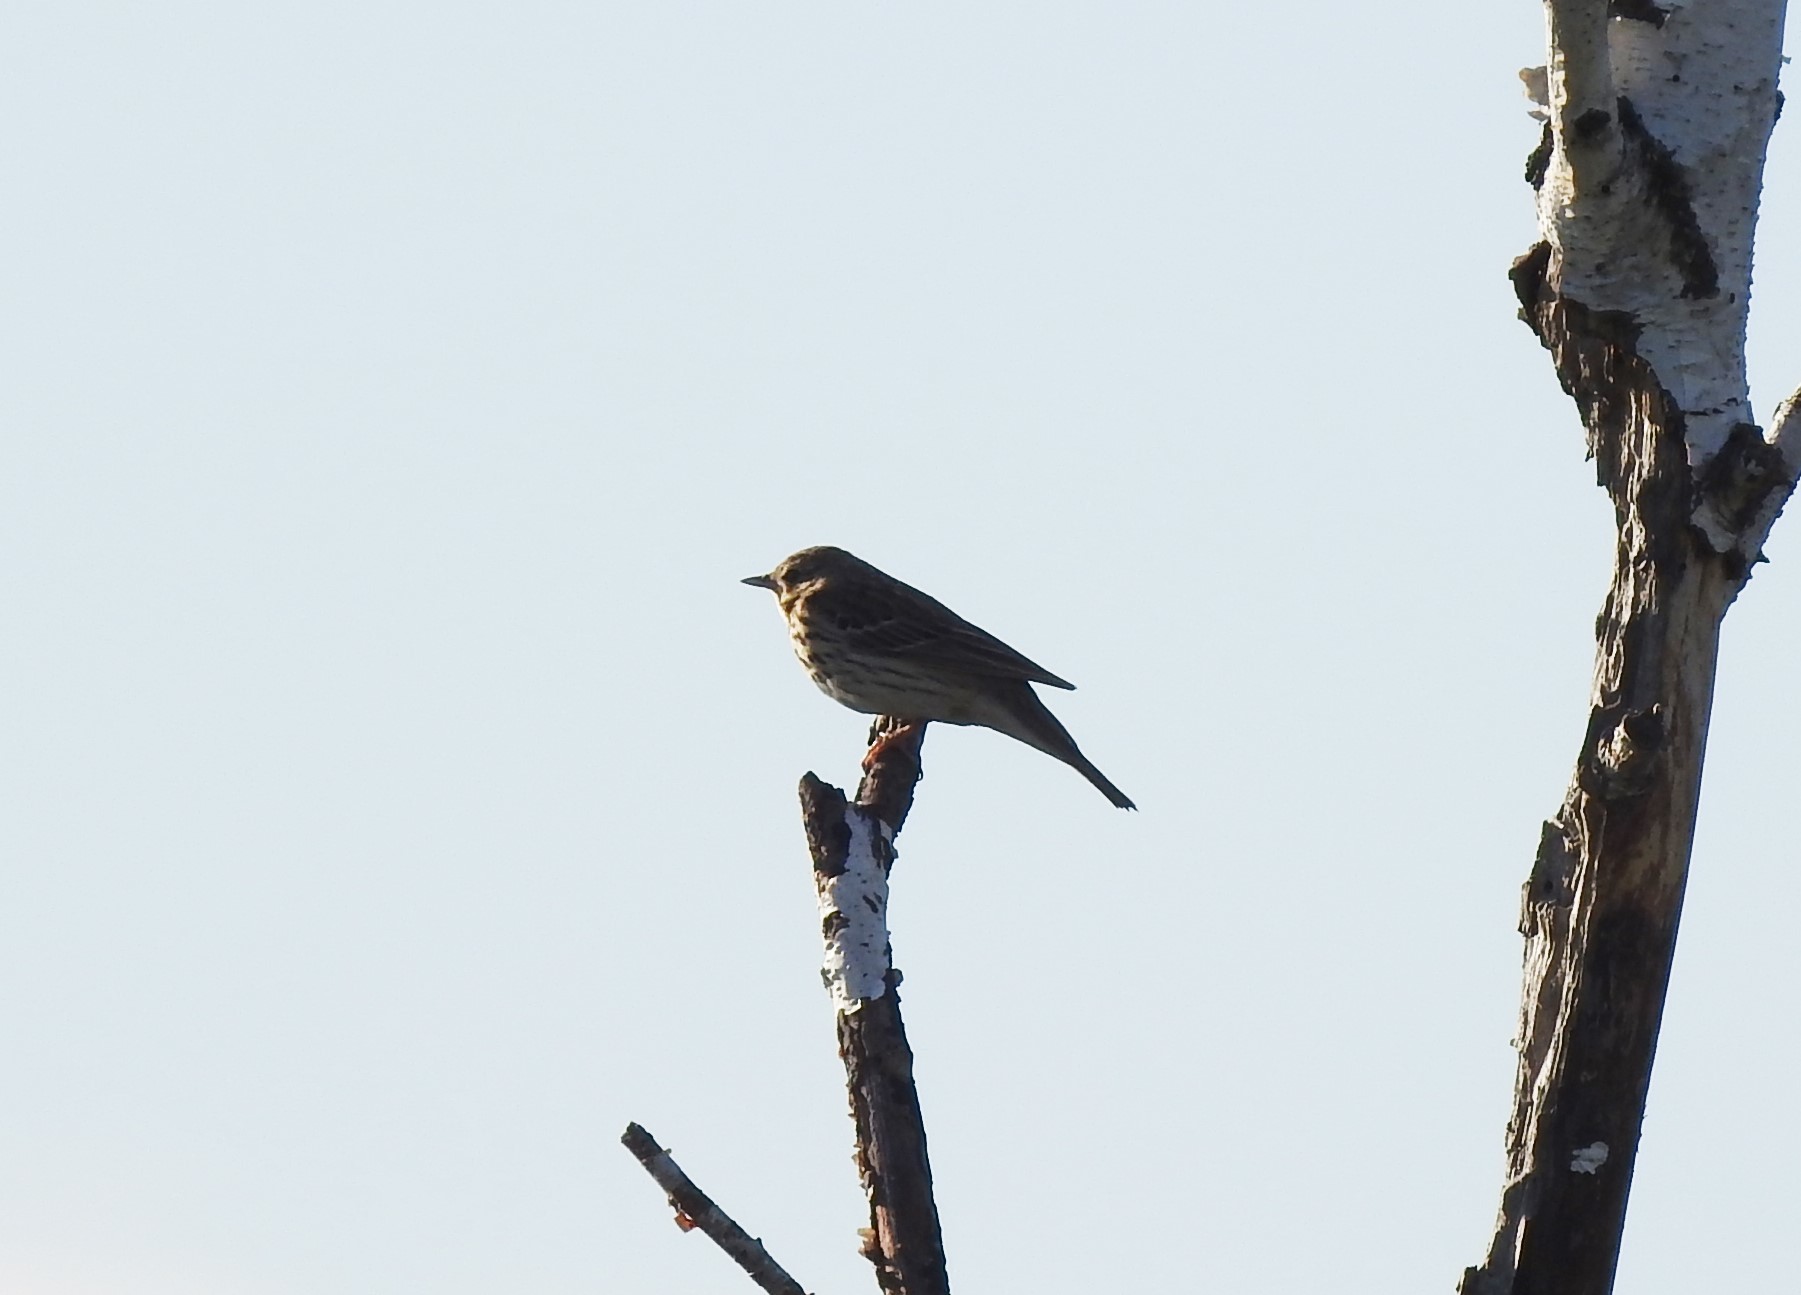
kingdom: Animalia
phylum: Chordata
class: Aves
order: Passeriformes
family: Motacillidae
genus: Anthus
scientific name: Anthus trivialis
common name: Tree pipit
